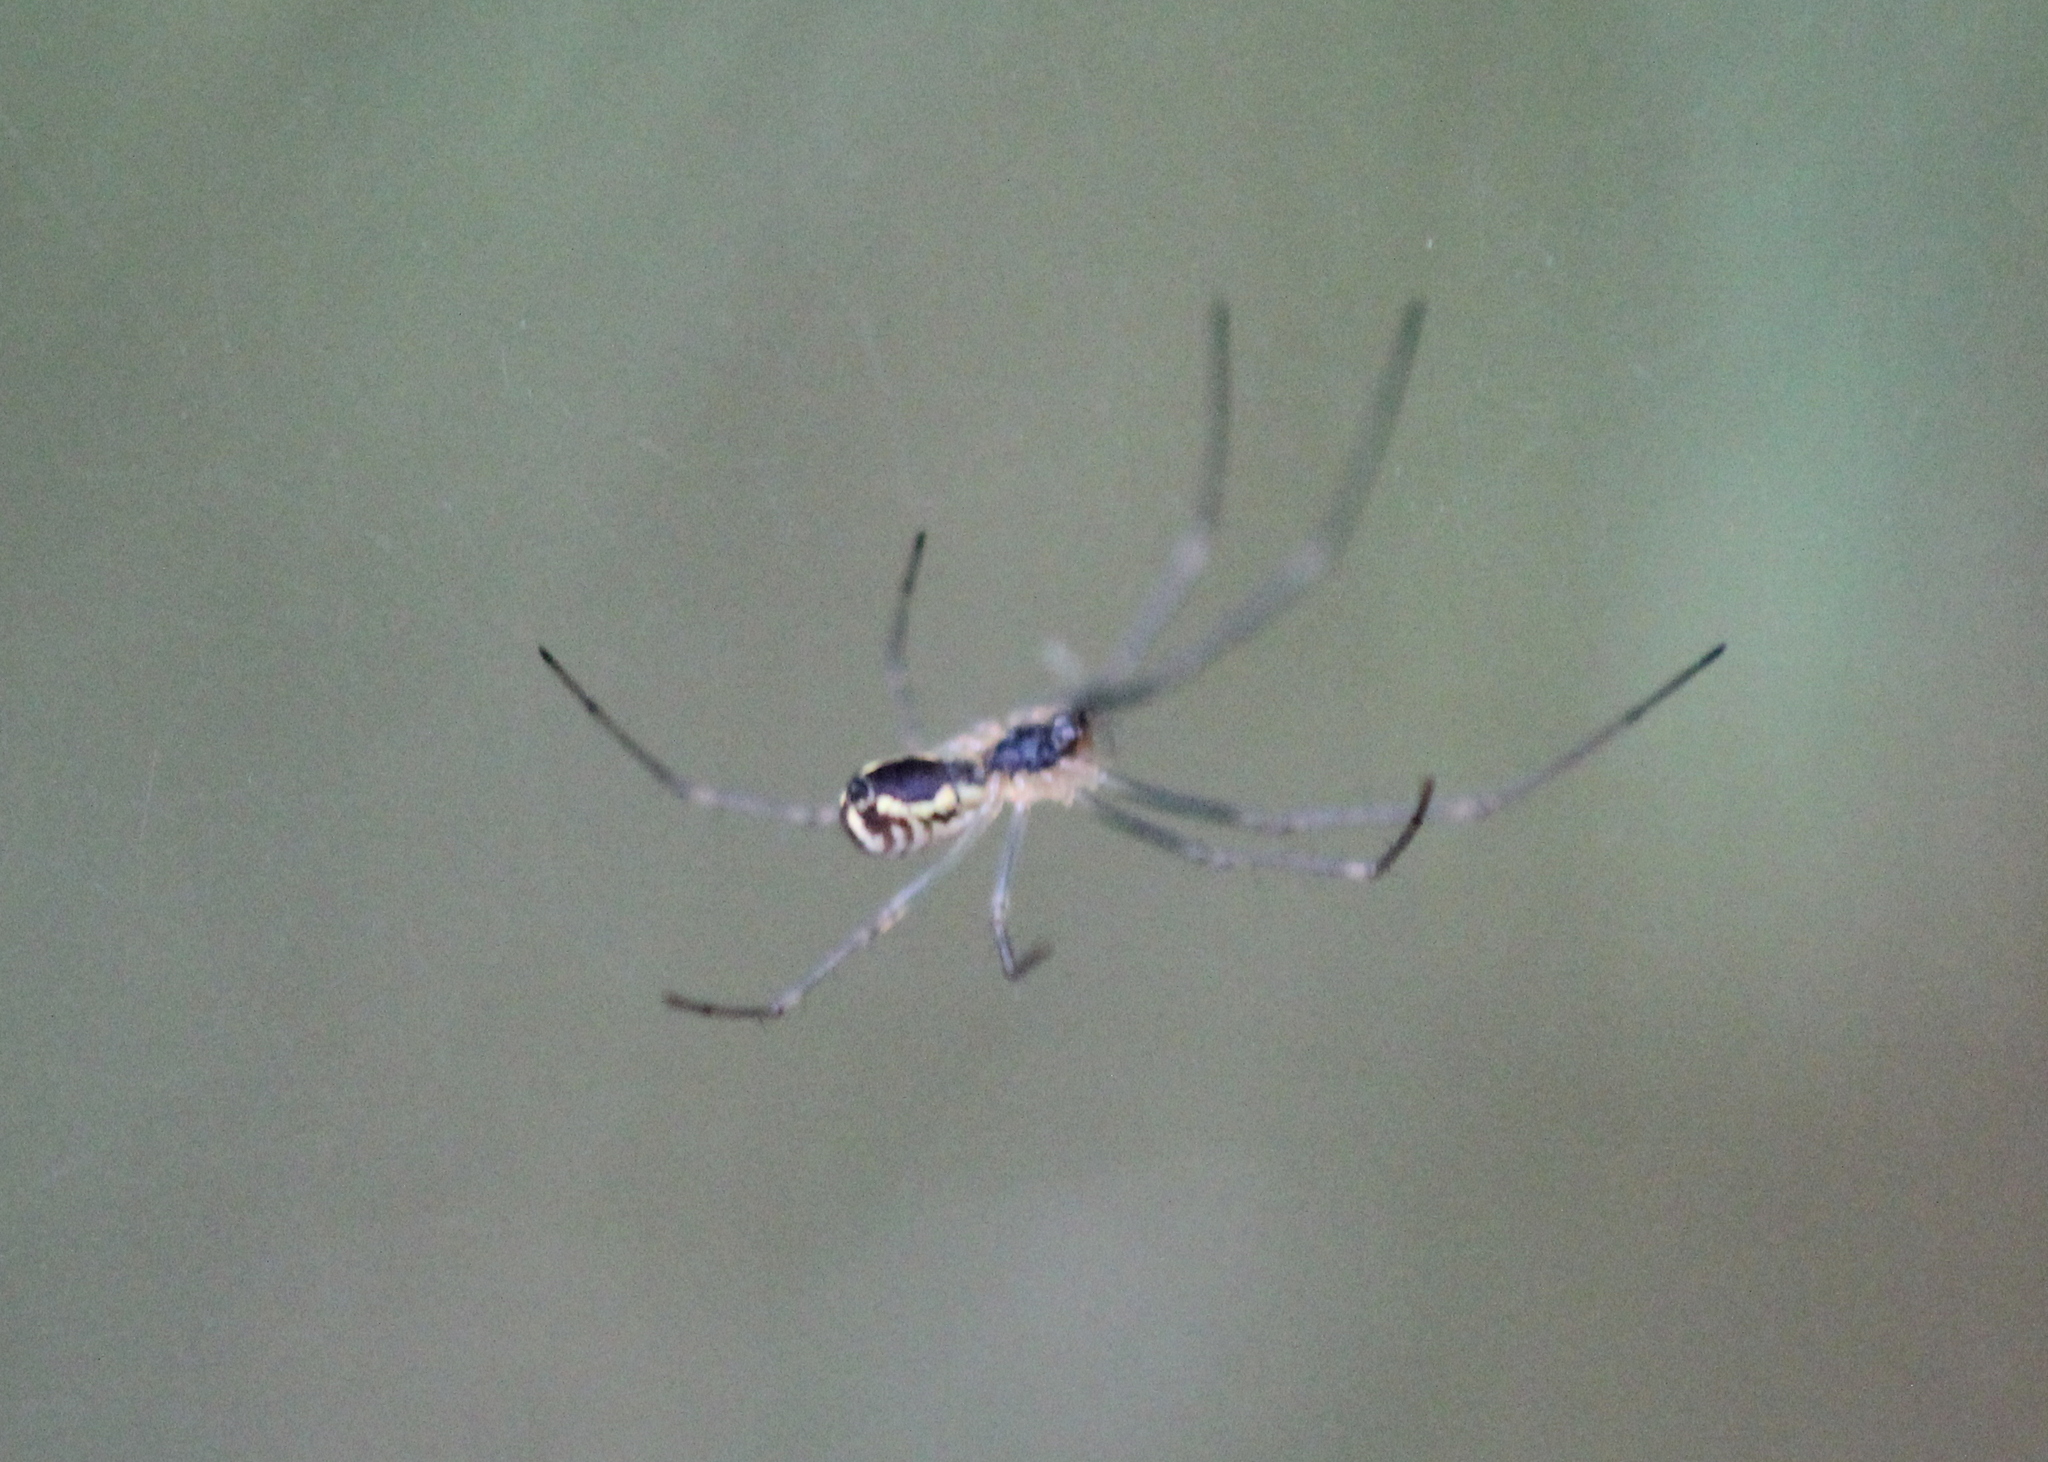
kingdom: Animalia
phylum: Arthropoda
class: Arachnida
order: Araneae
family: Linyphiidae
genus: Neriene
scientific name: Neriene radiata
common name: Filmy dome spider
